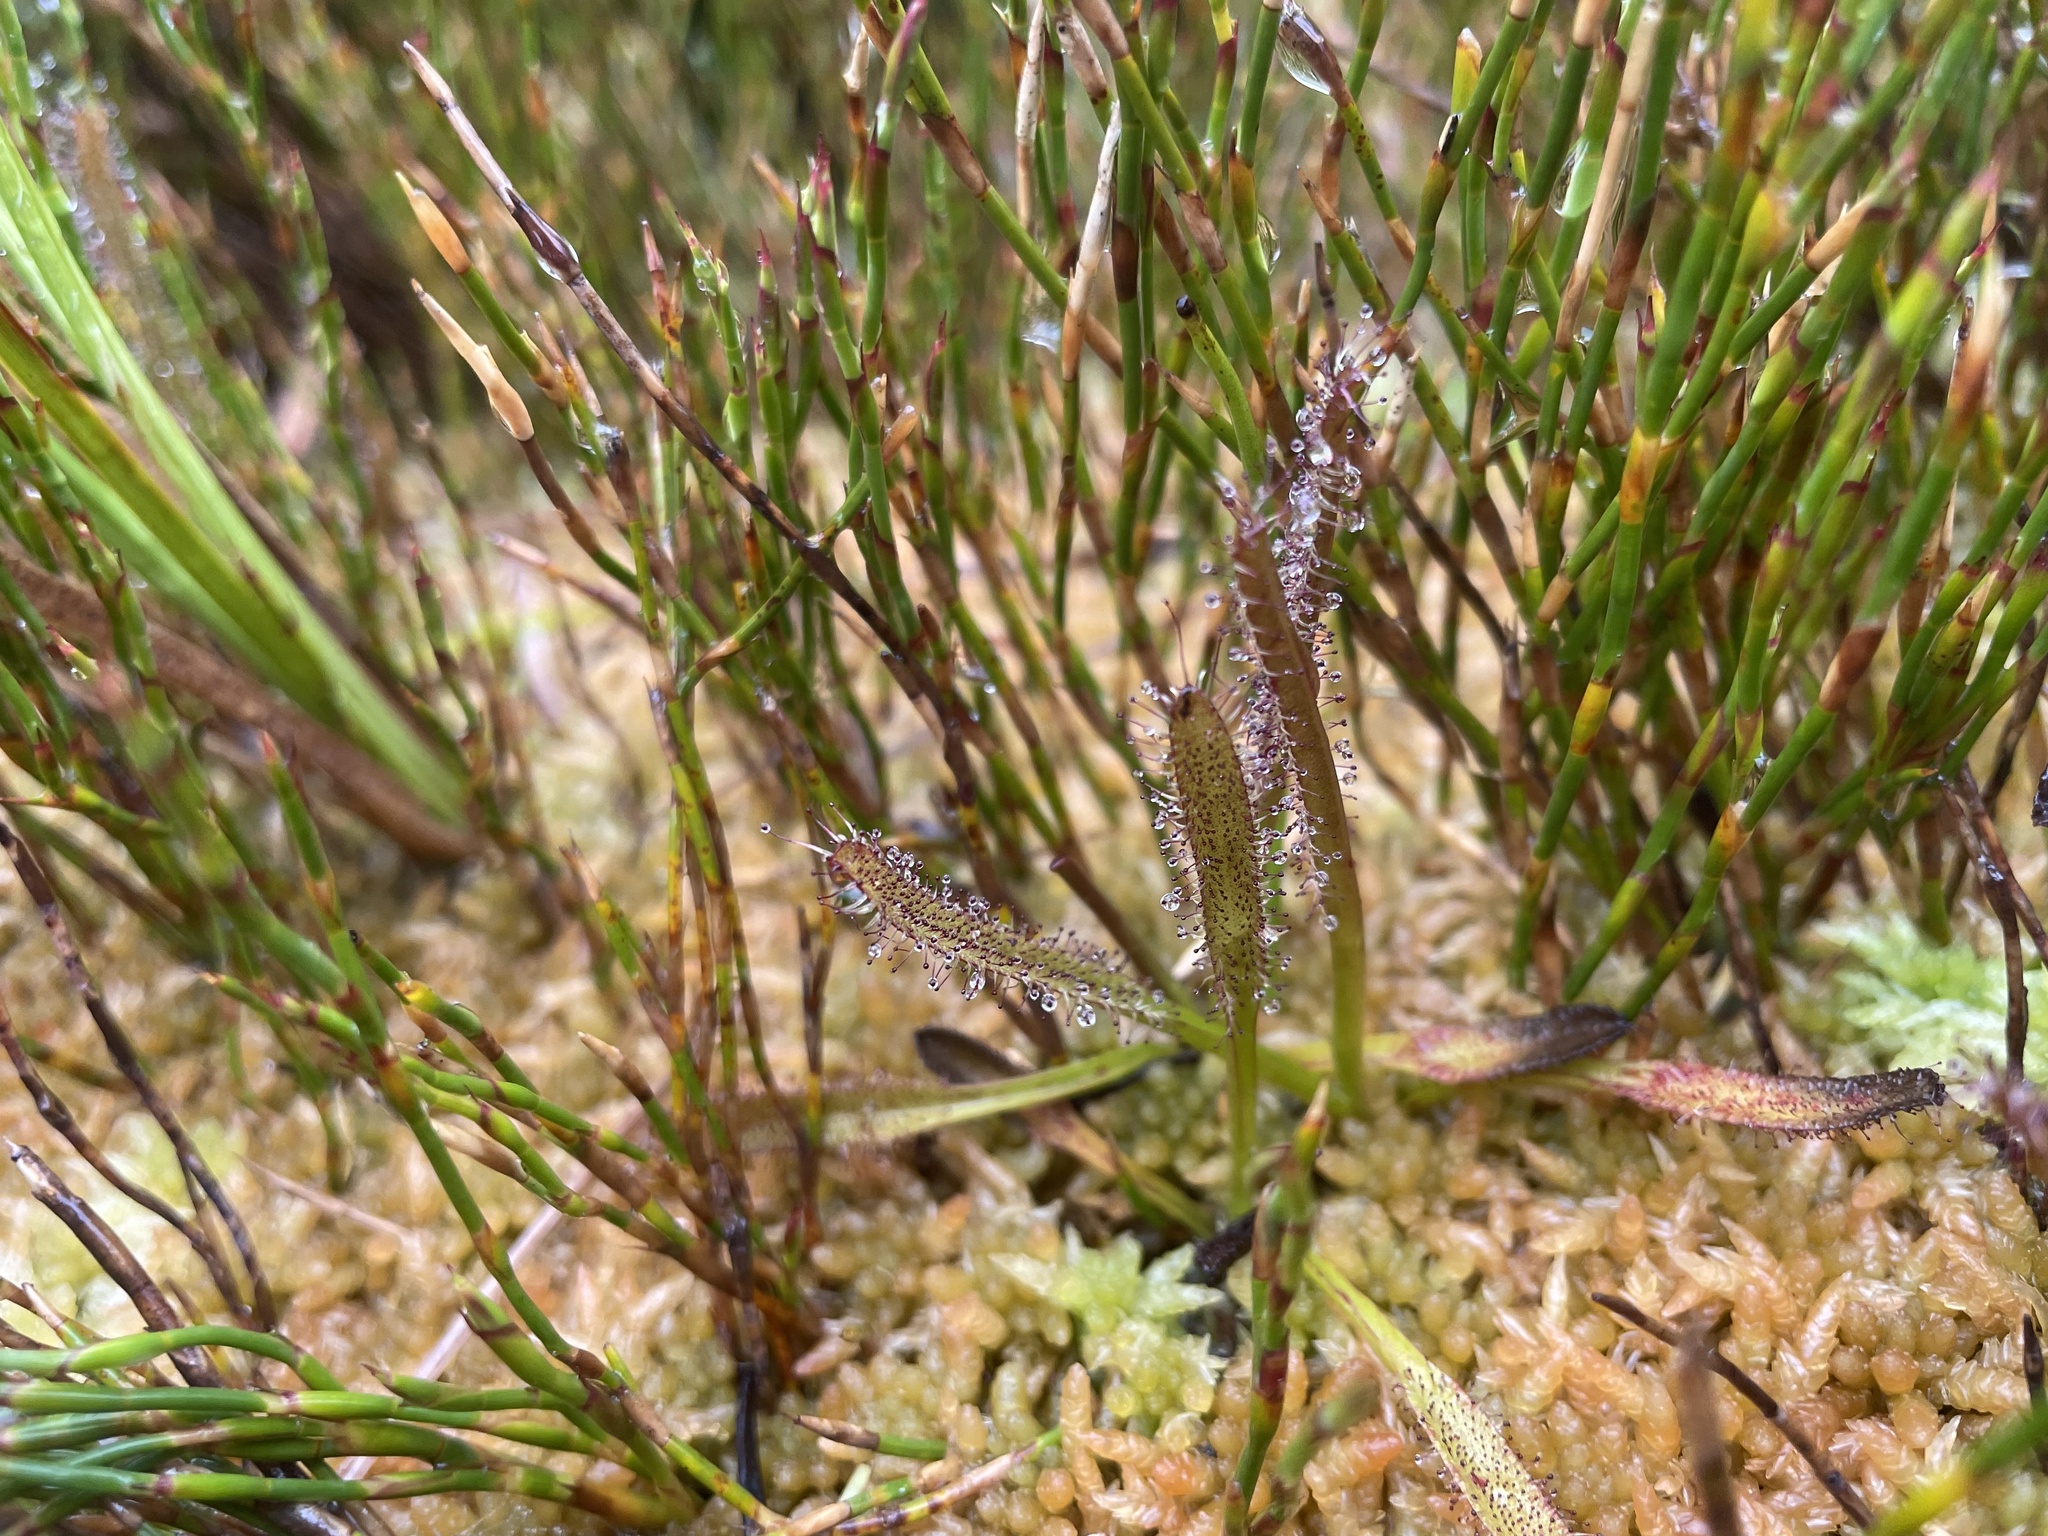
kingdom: Plantae
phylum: Tracheophyta
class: Magnoliopsida
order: Caryophyllales
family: Droseraceae
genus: Drosera
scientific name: Drosera arcturi
